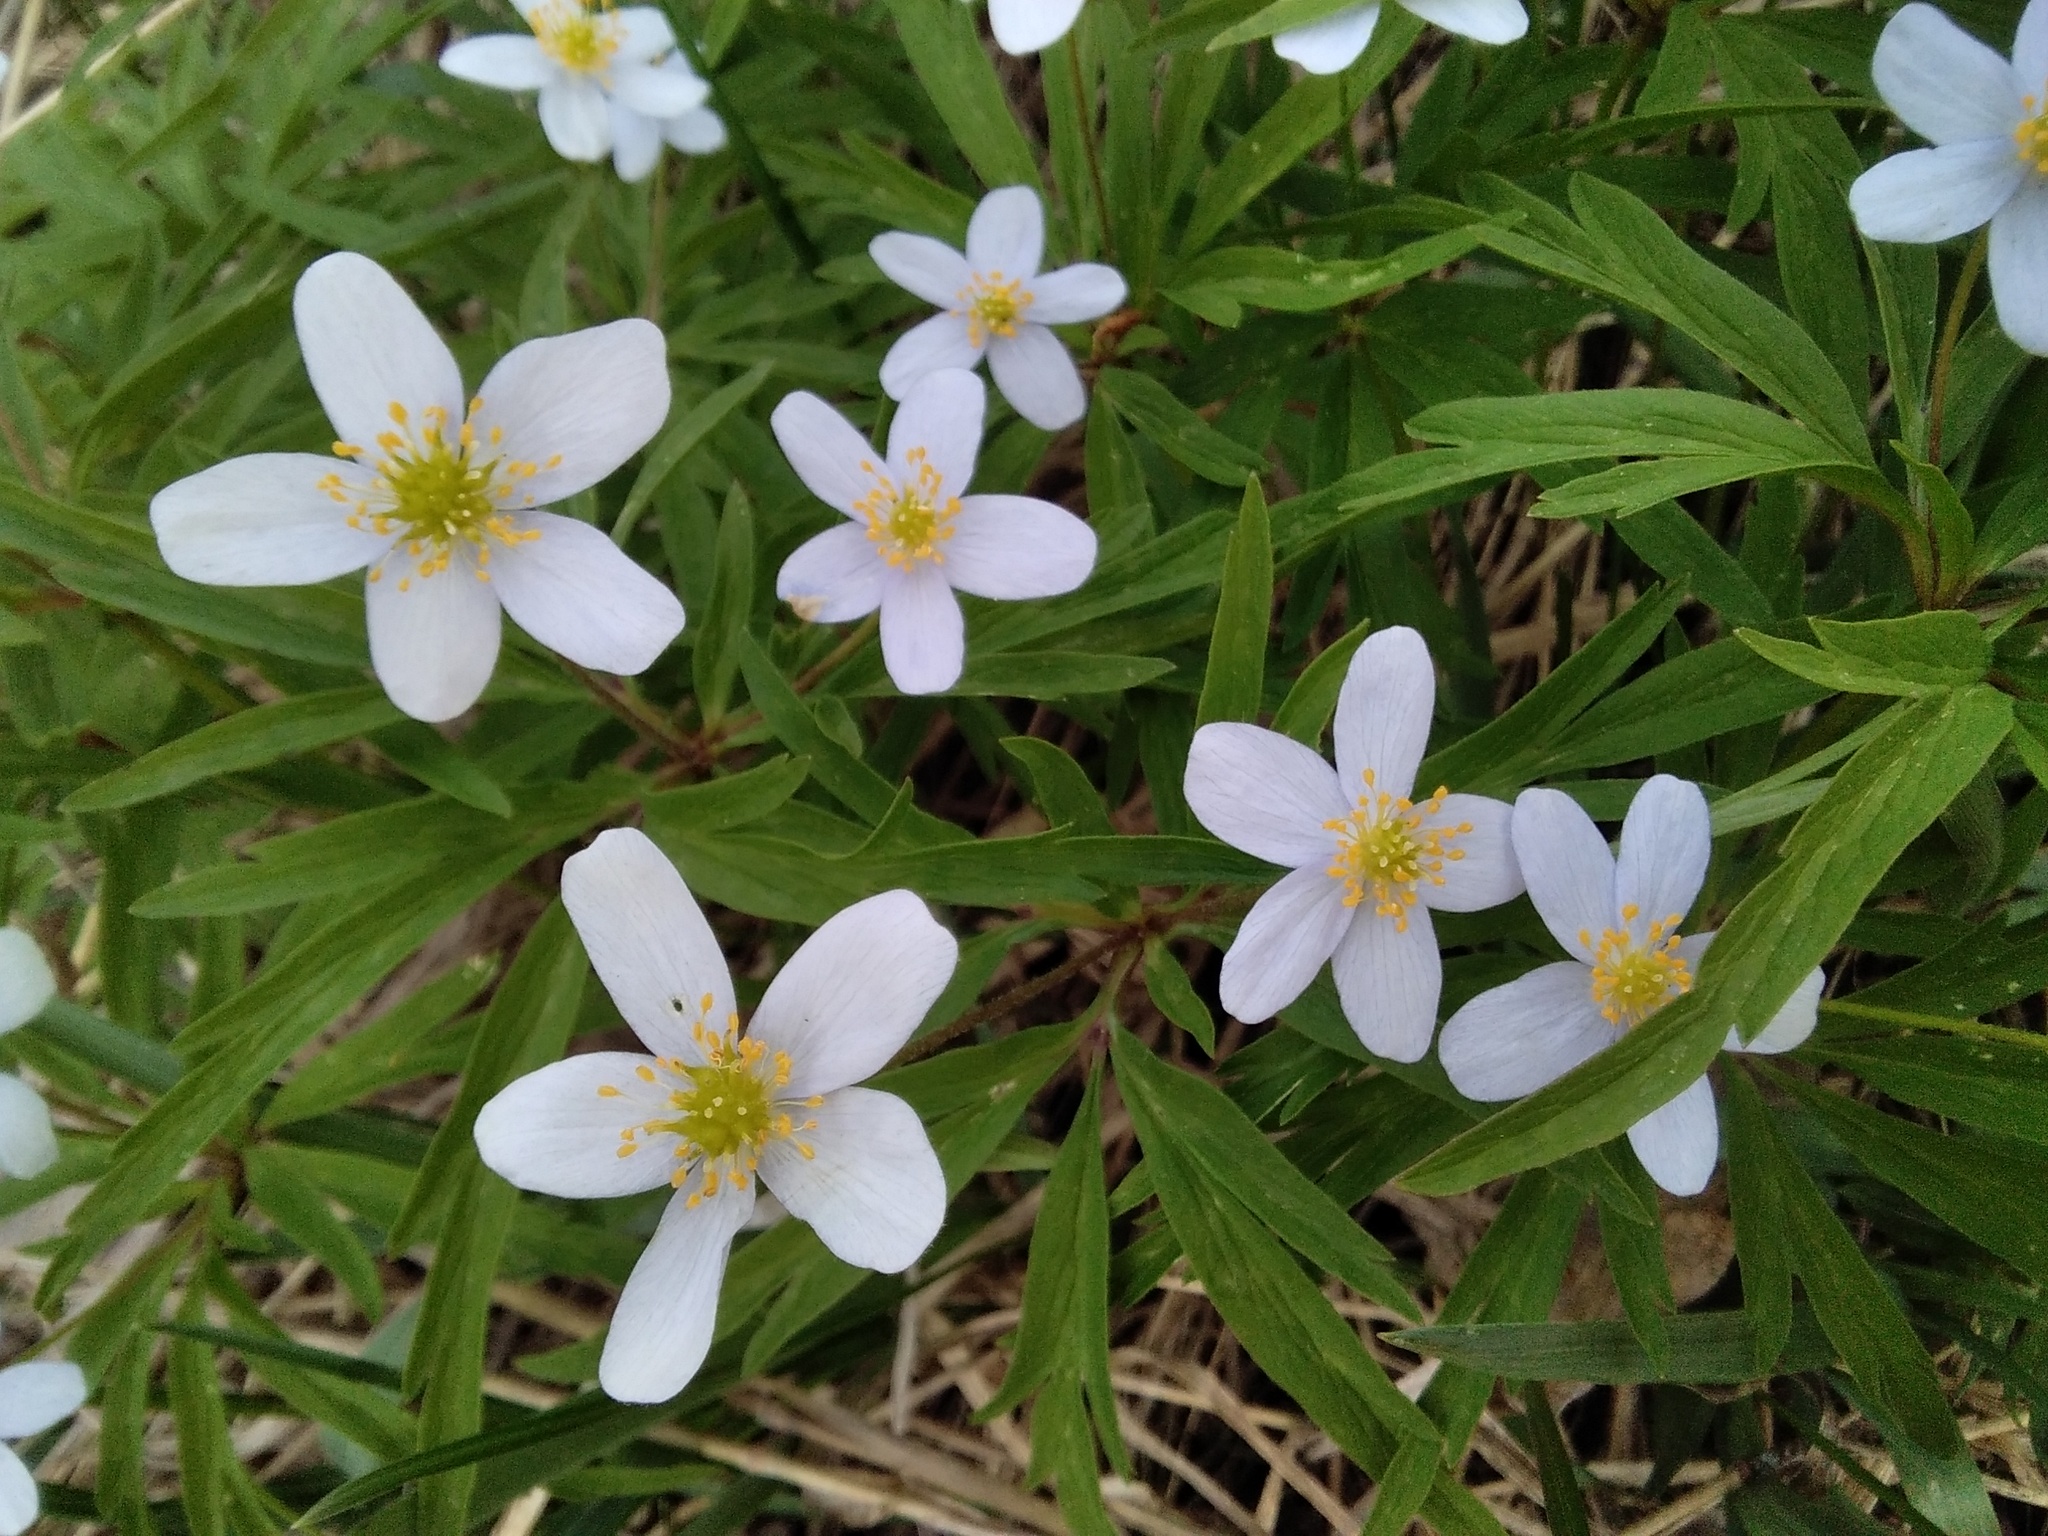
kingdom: Plantae
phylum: Tracheophyta
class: Magnoliopsida
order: Ranunculales
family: Ranunculaceae
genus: Anemone
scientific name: Anemone caerulea
